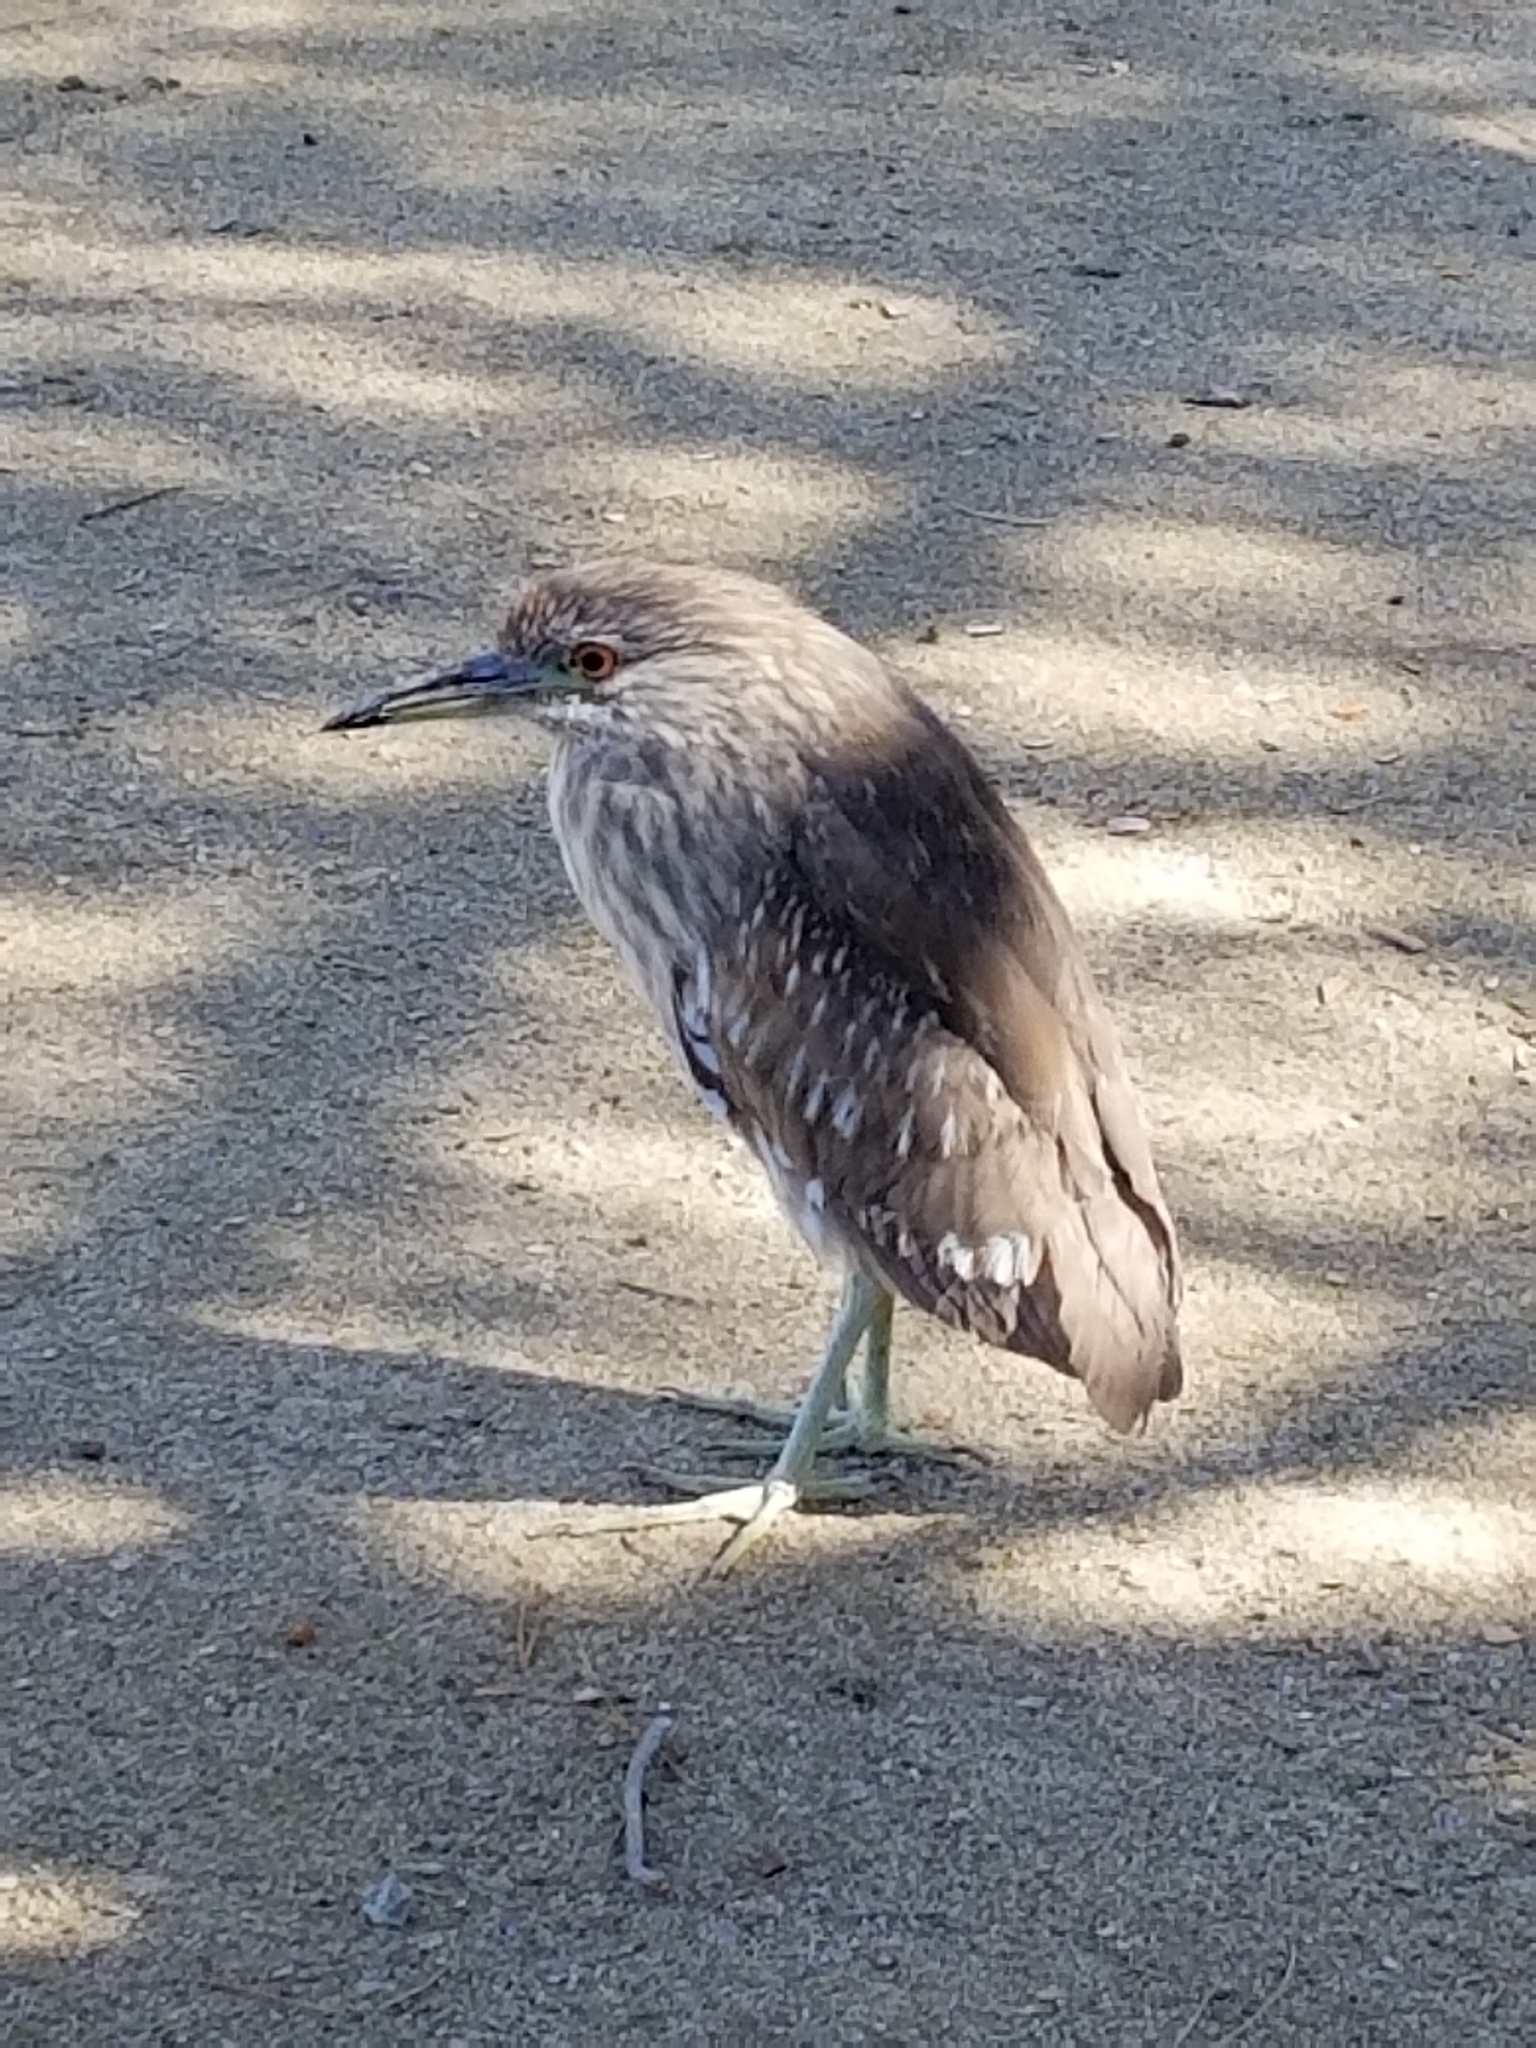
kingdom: Animalia
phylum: Chordata
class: Aves
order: Pelecaniformes
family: Ardeidae
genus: Nycticorax
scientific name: Nycticorax nycticorax
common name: Black-crowned night heron
